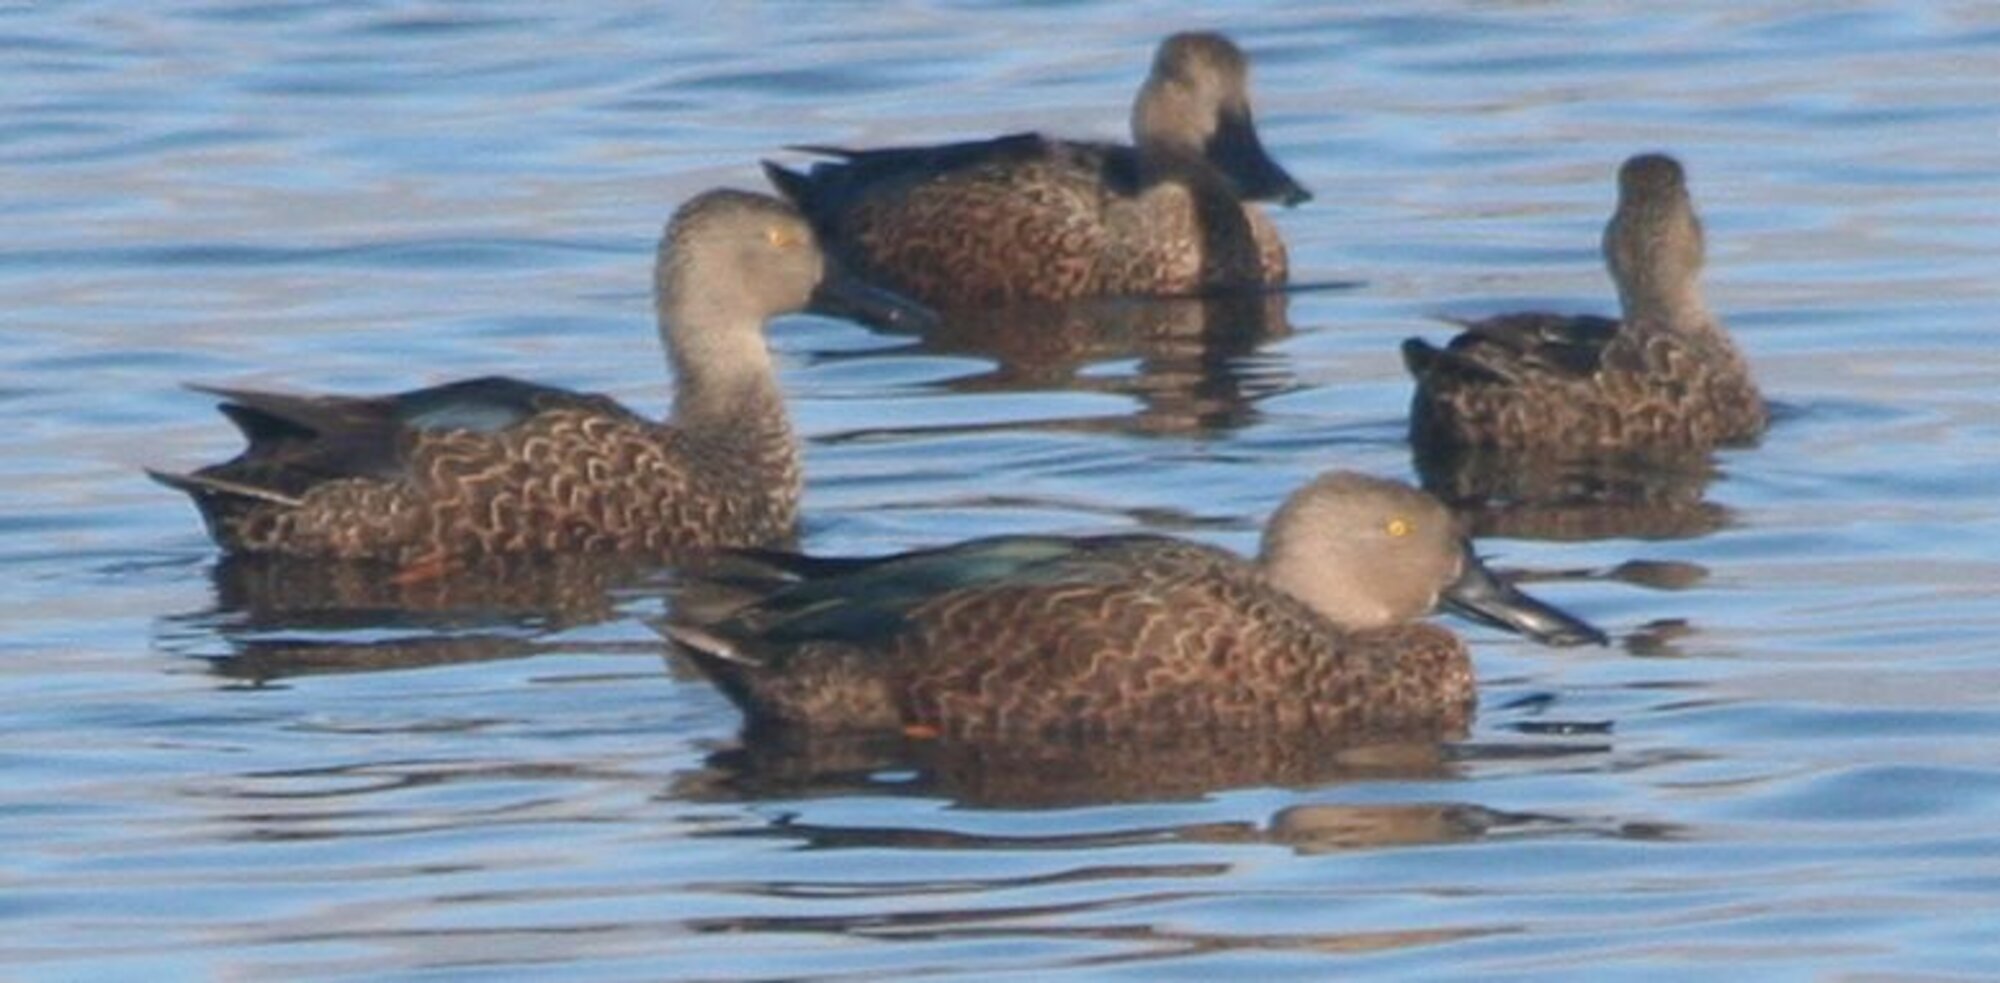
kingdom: Animalia
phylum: Chordata
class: Aves
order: Anseriformes
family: Anatidae
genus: Spatula
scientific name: Spatula smithii
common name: Cape shoveler
